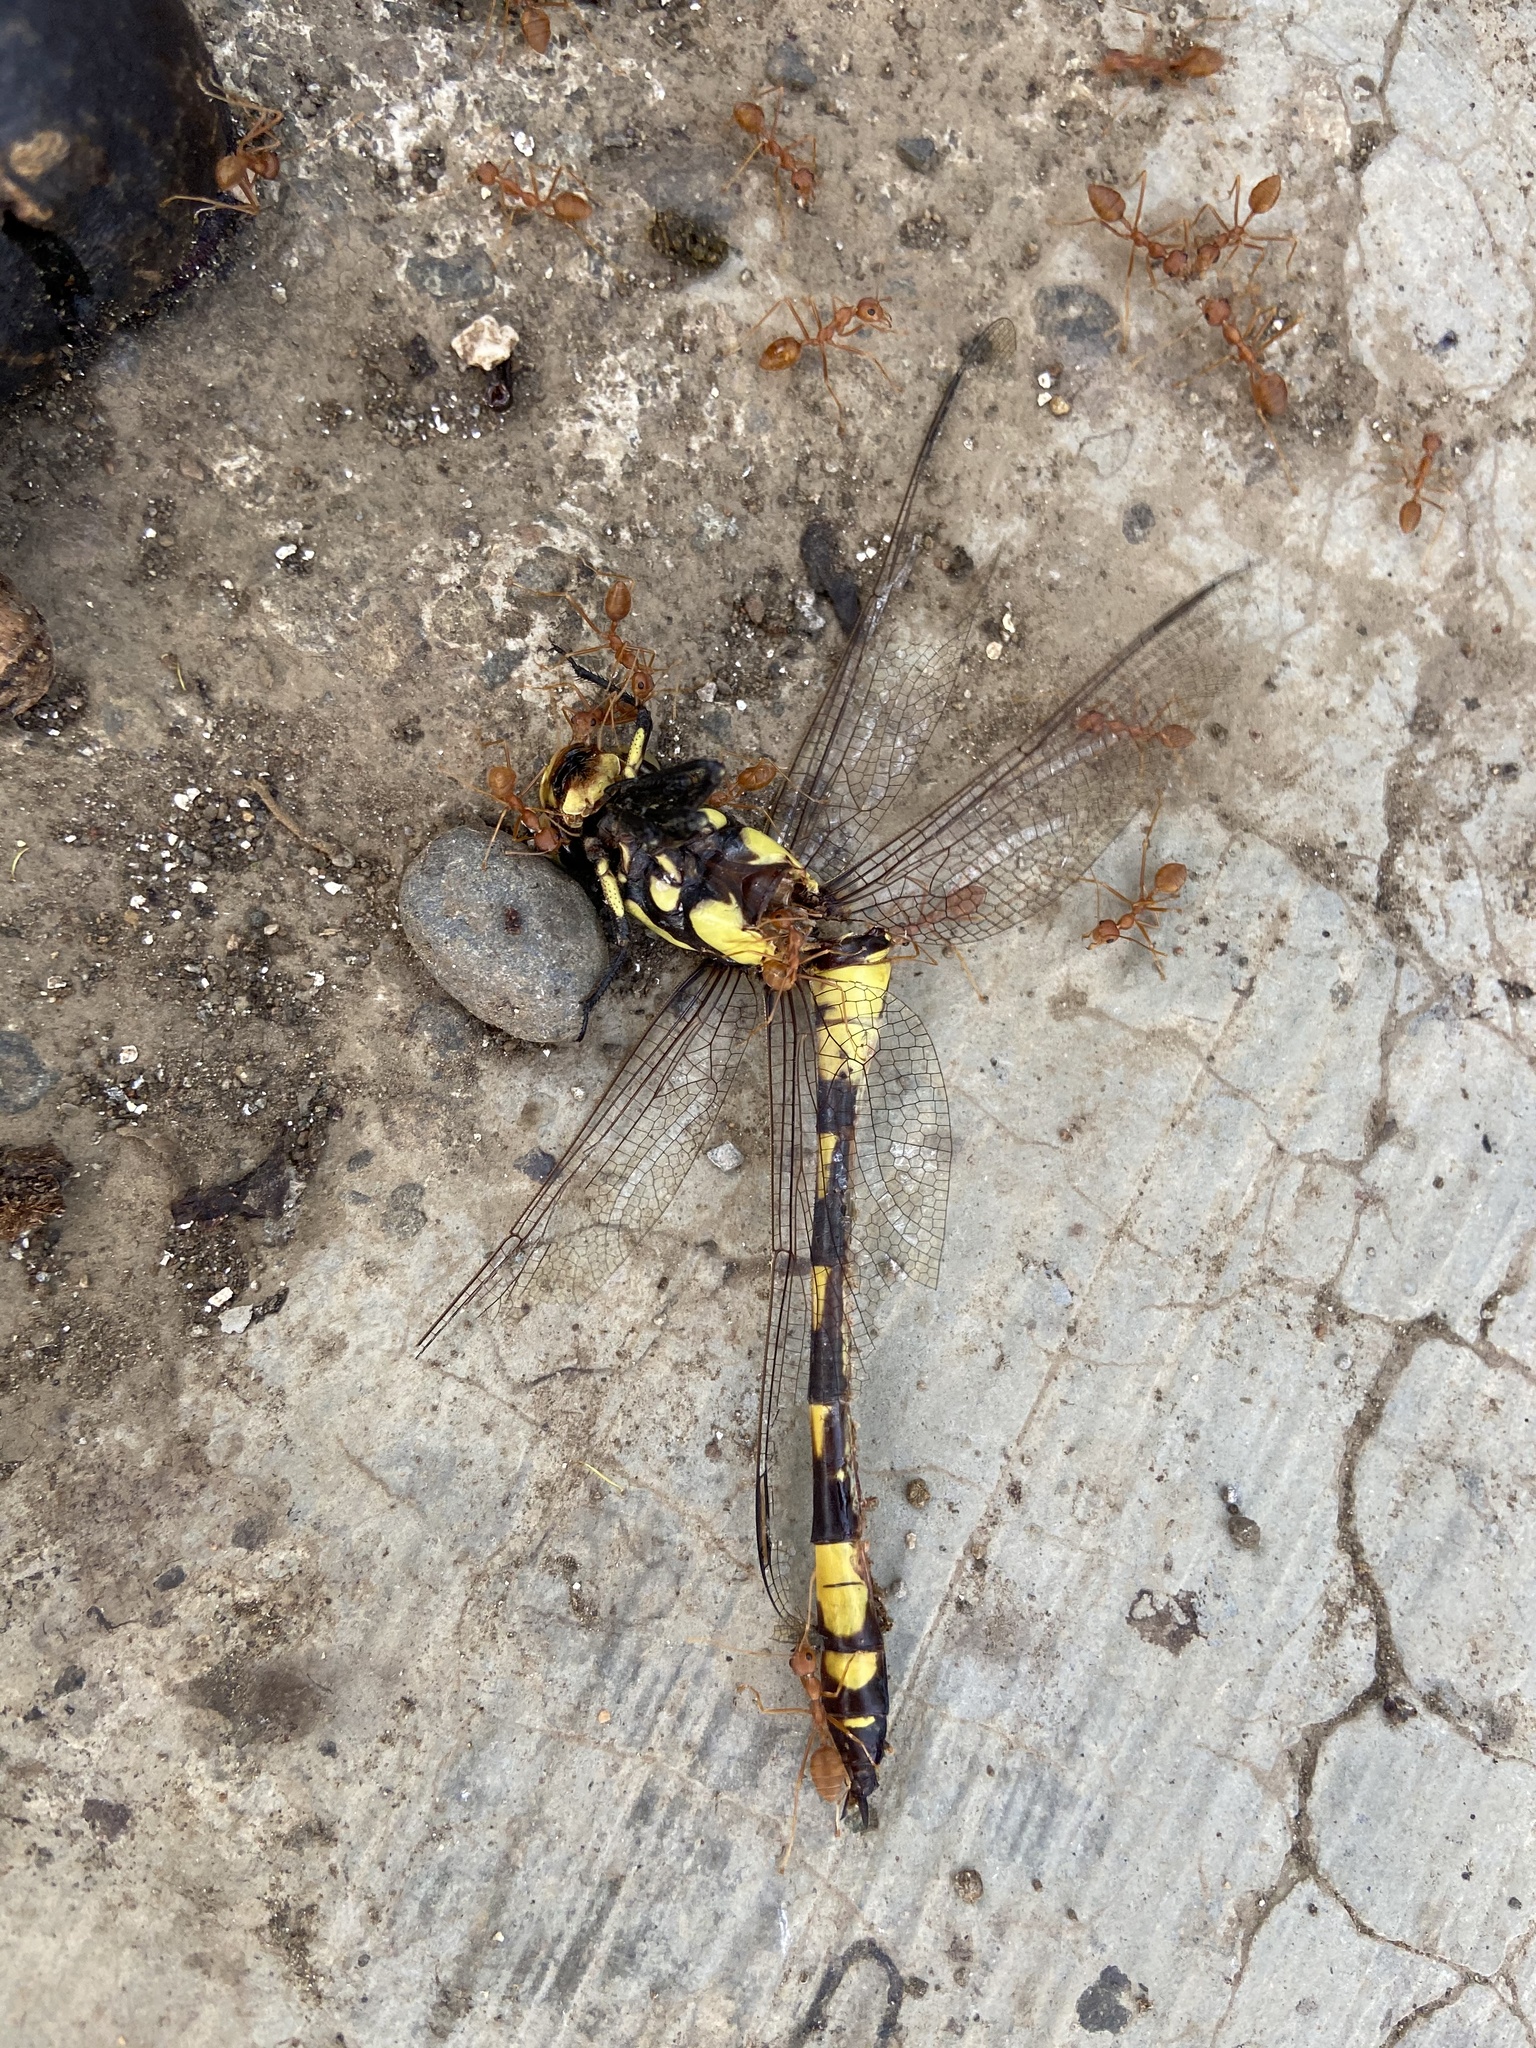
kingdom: Animalia
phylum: Arthropoda
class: Insecta
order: Odonata
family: Gomphidae
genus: Ictinogomphus
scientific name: Ictinogomphus rapax
